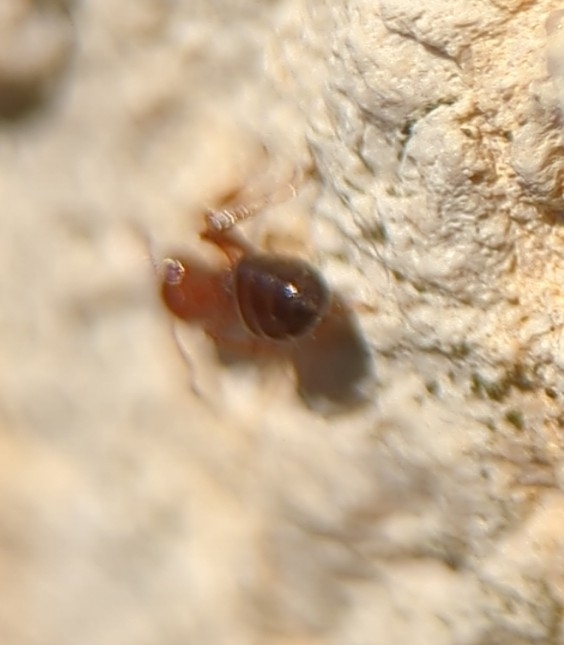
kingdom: Animalia
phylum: Arthropoda
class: Insecta
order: Hymenoptera
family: Formicidae
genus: Crematogaster
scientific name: Crematogaster laeviuscula
